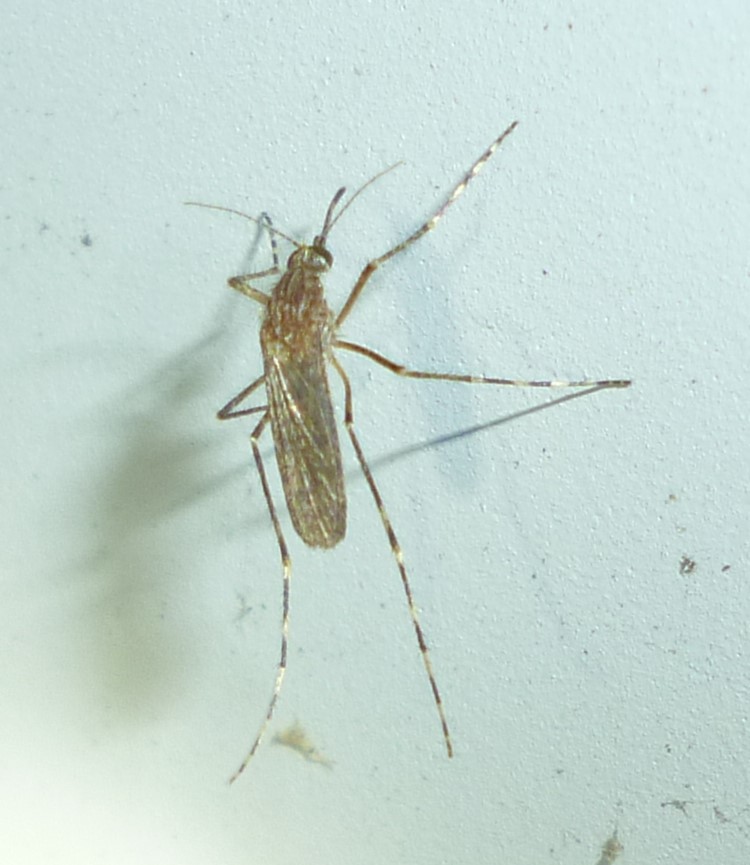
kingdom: Animalia
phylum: Arthropoda
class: Insecta
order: Diptera
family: Culicidae
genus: Coquillettidia
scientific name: Coquillettidia perturbans
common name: Cattail mosquito
